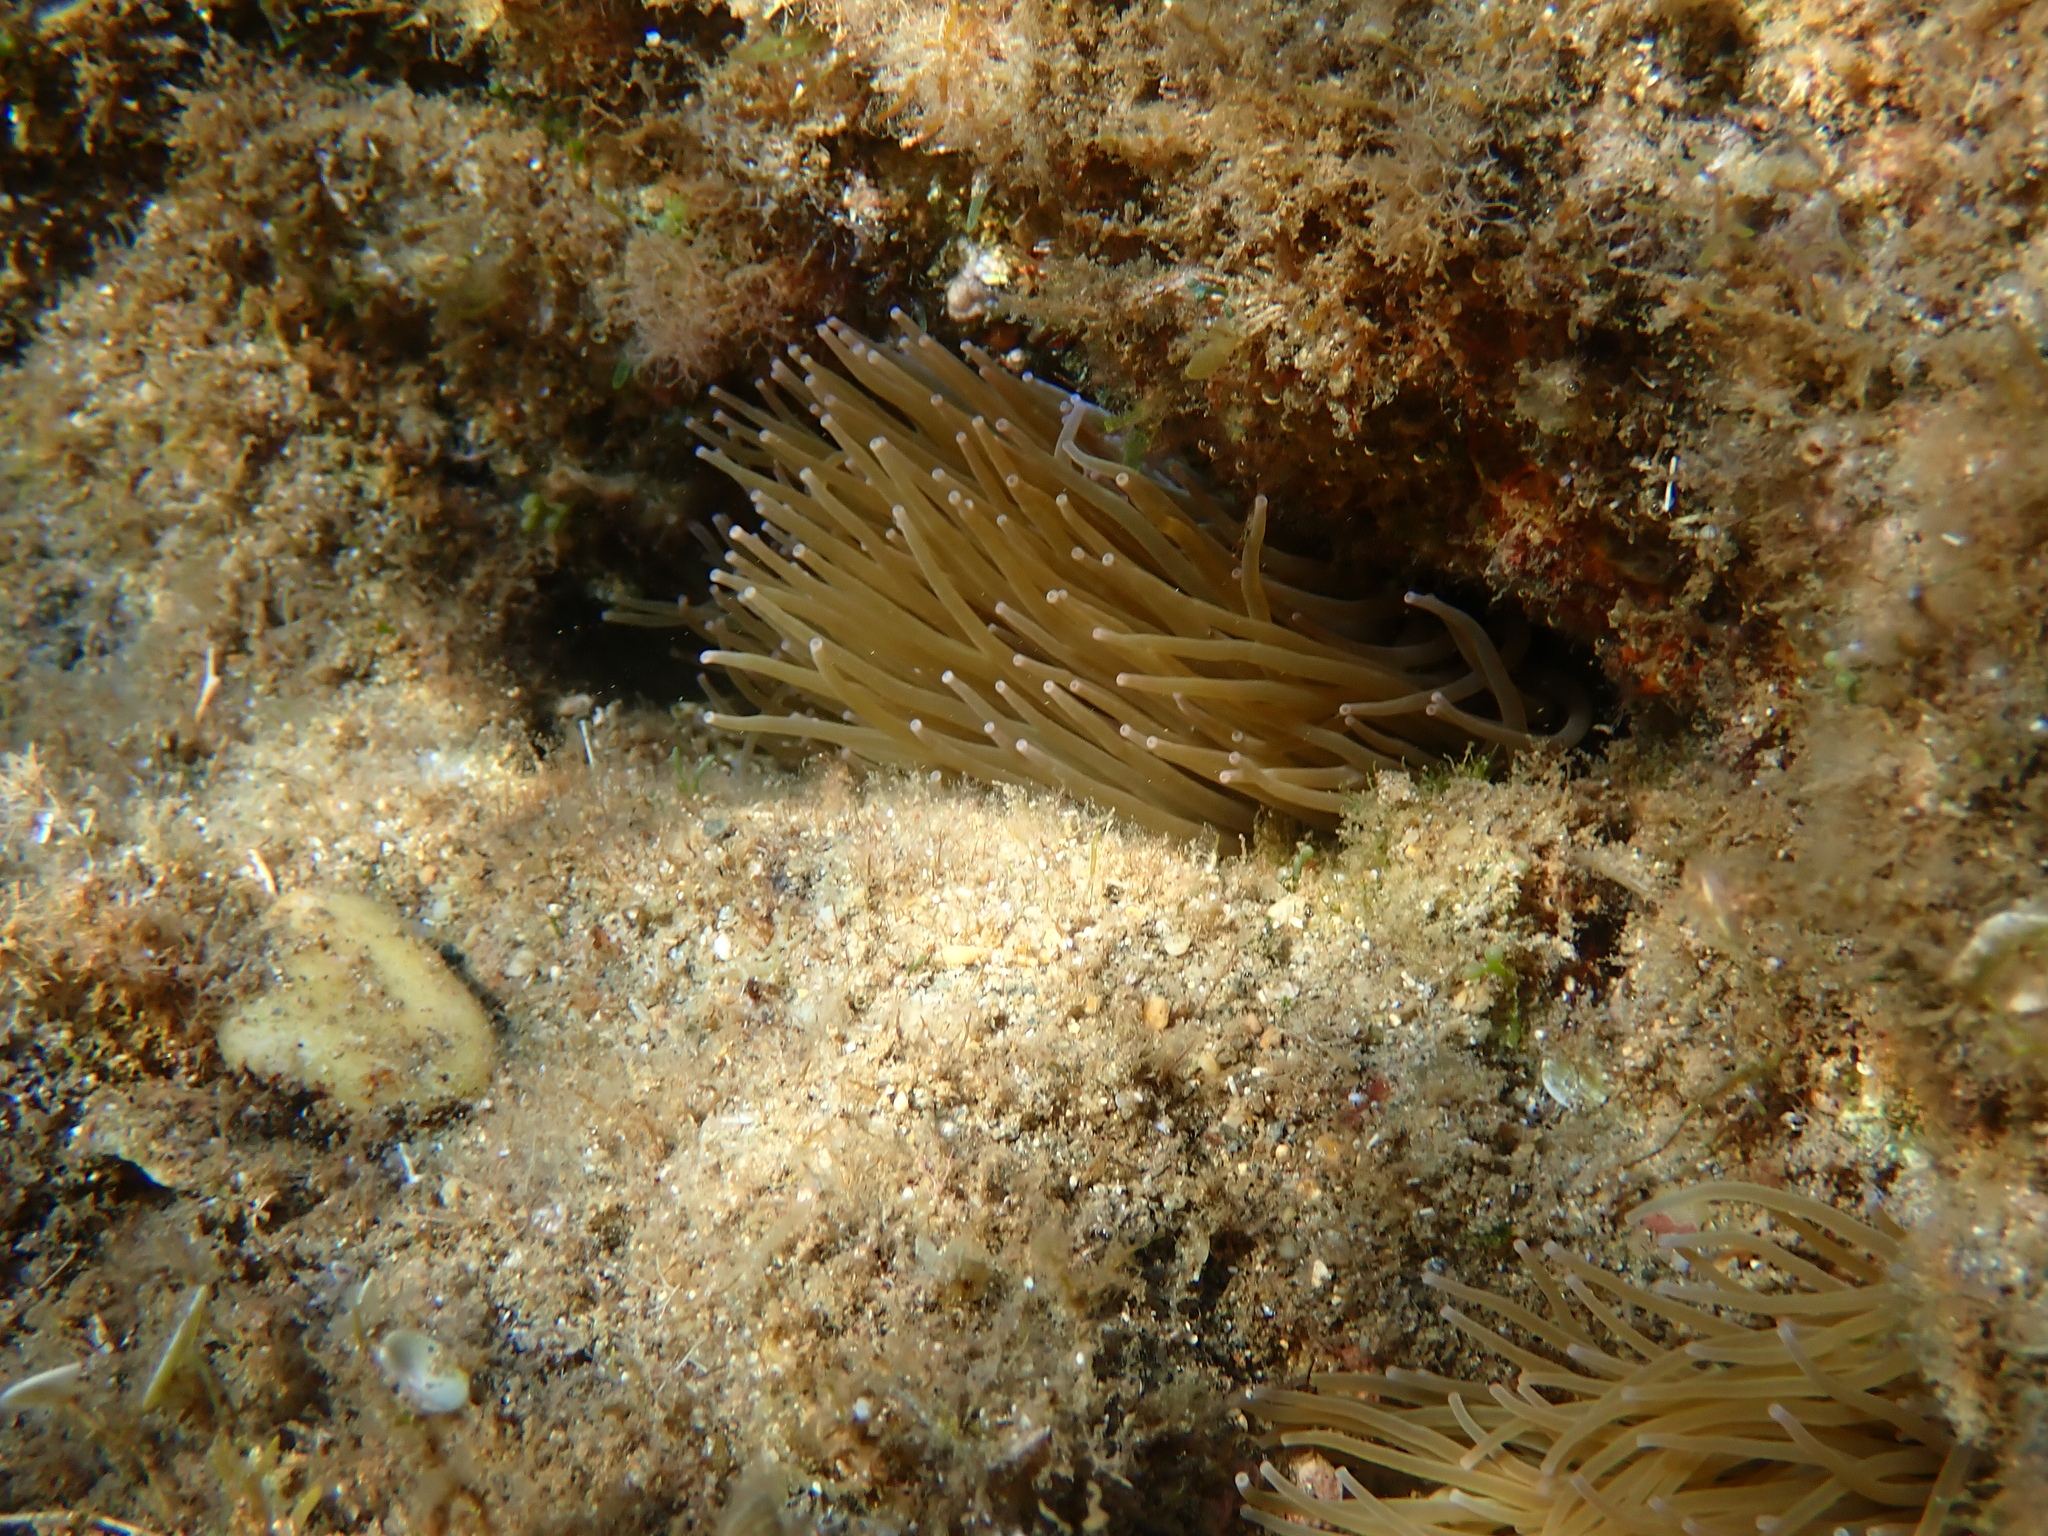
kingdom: Animalia
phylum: Cnidaria
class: Anthozoa
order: Actiniaria
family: Actiniidae
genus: Anemonia
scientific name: Anemonia viridis
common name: Snakelocks anemone
